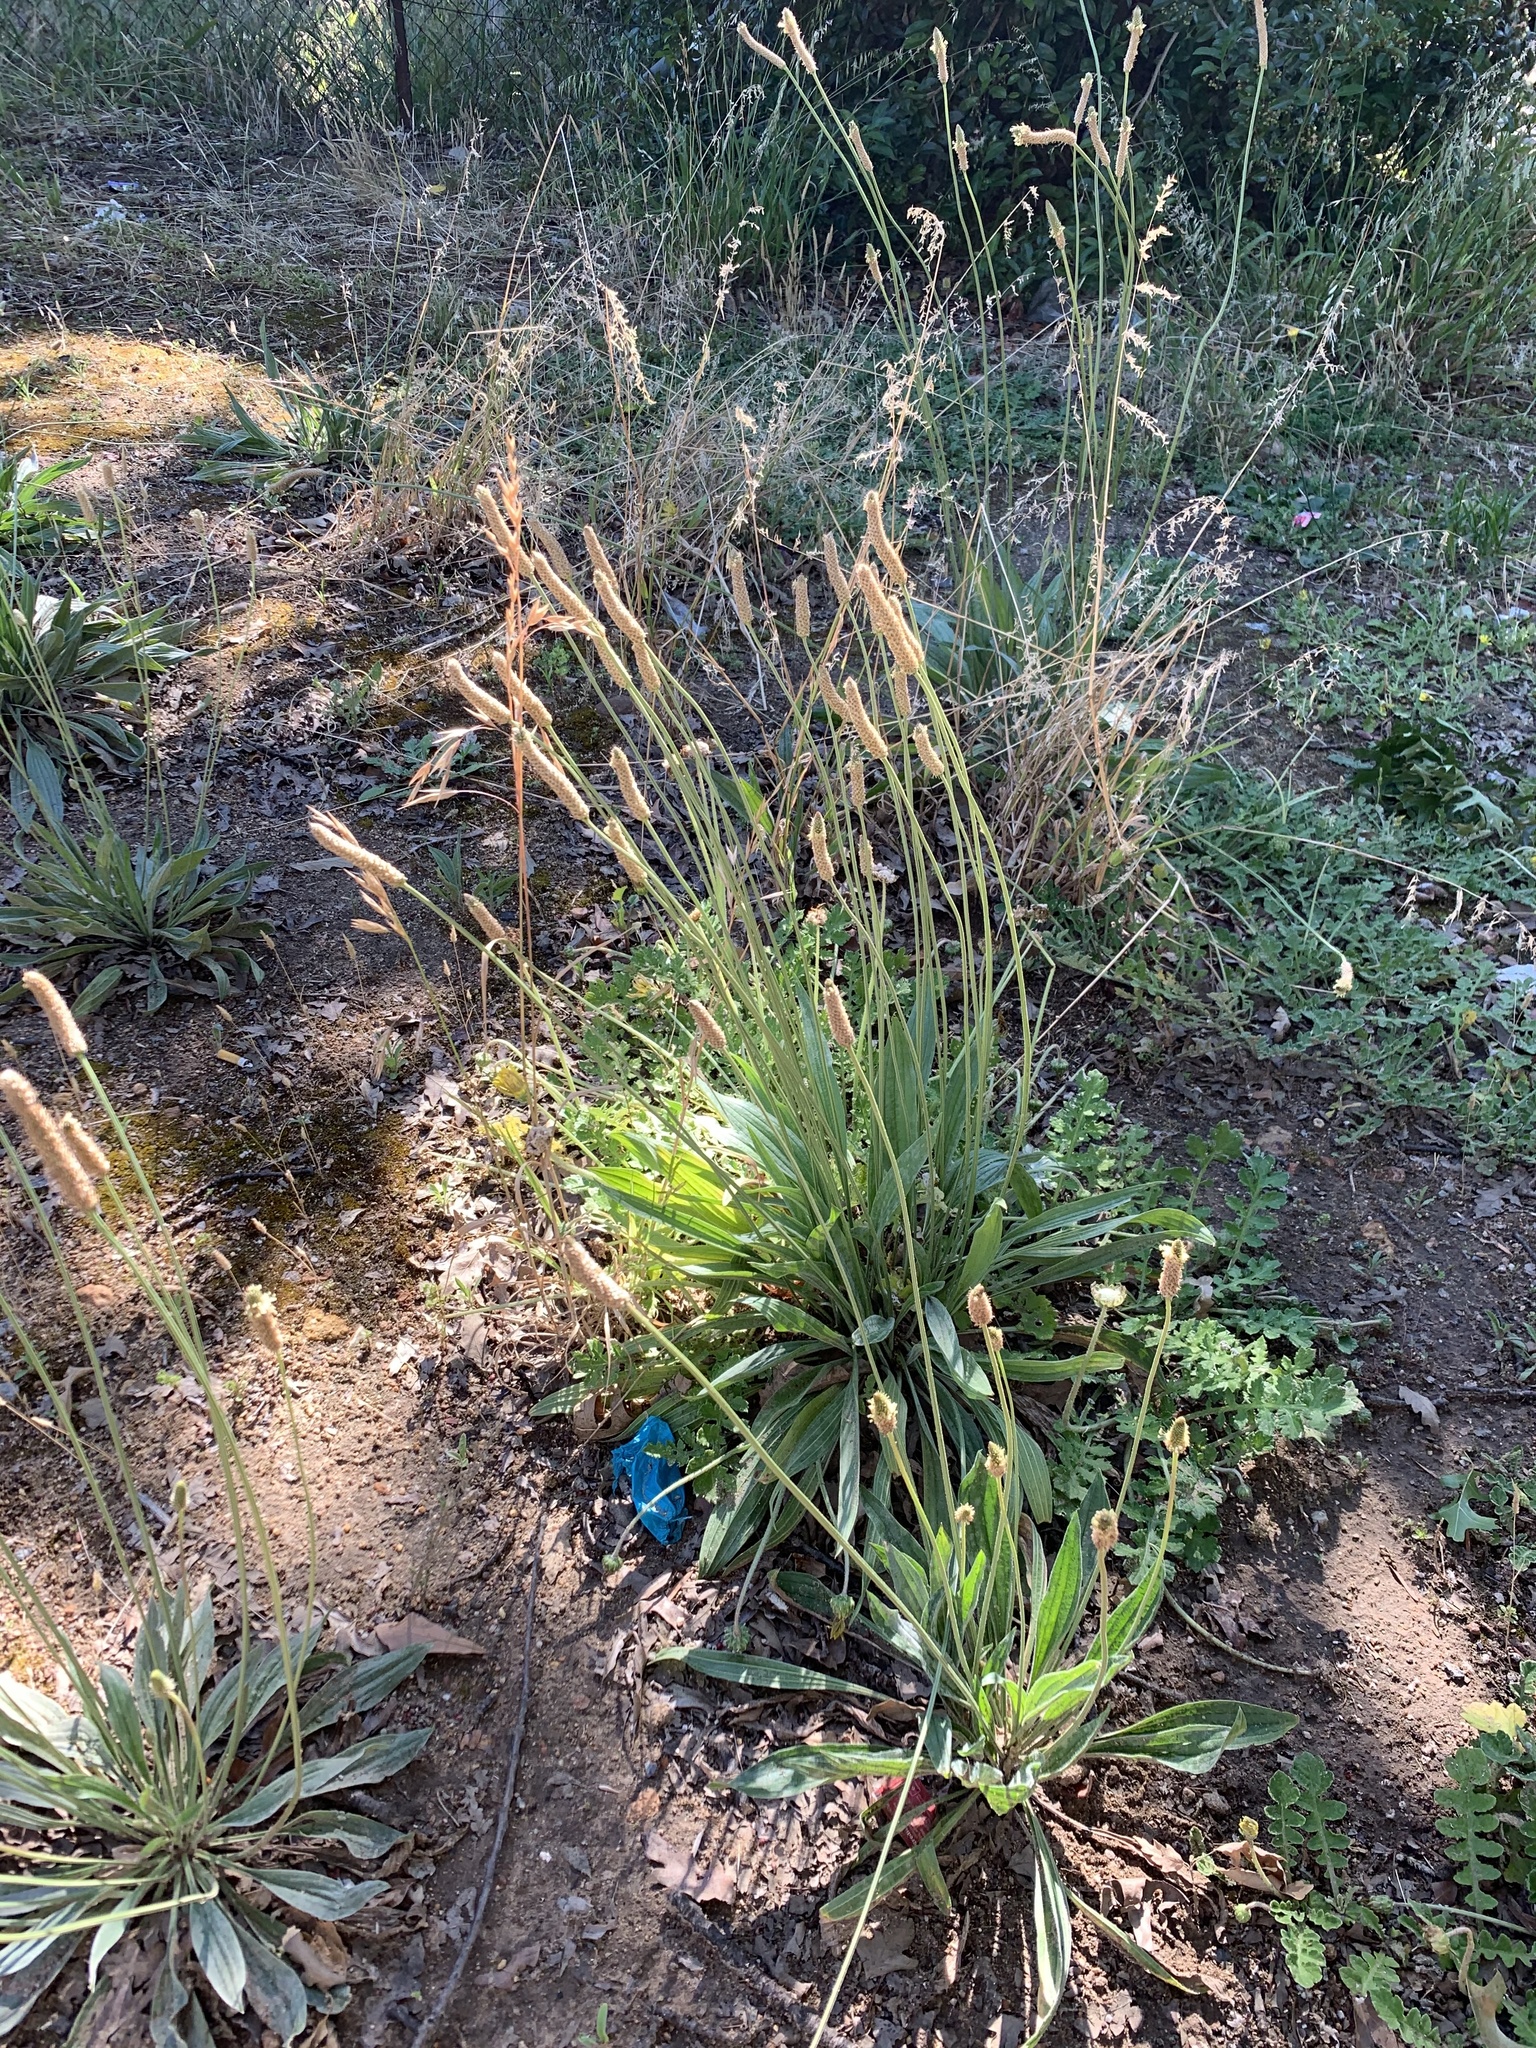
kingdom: Plantae
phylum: Tracheophyta
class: Magnoliopsida
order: Lamiales
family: Plantaginaceae
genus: Plantago
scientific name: Plantago lanceolata
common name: Ribwort plantain
